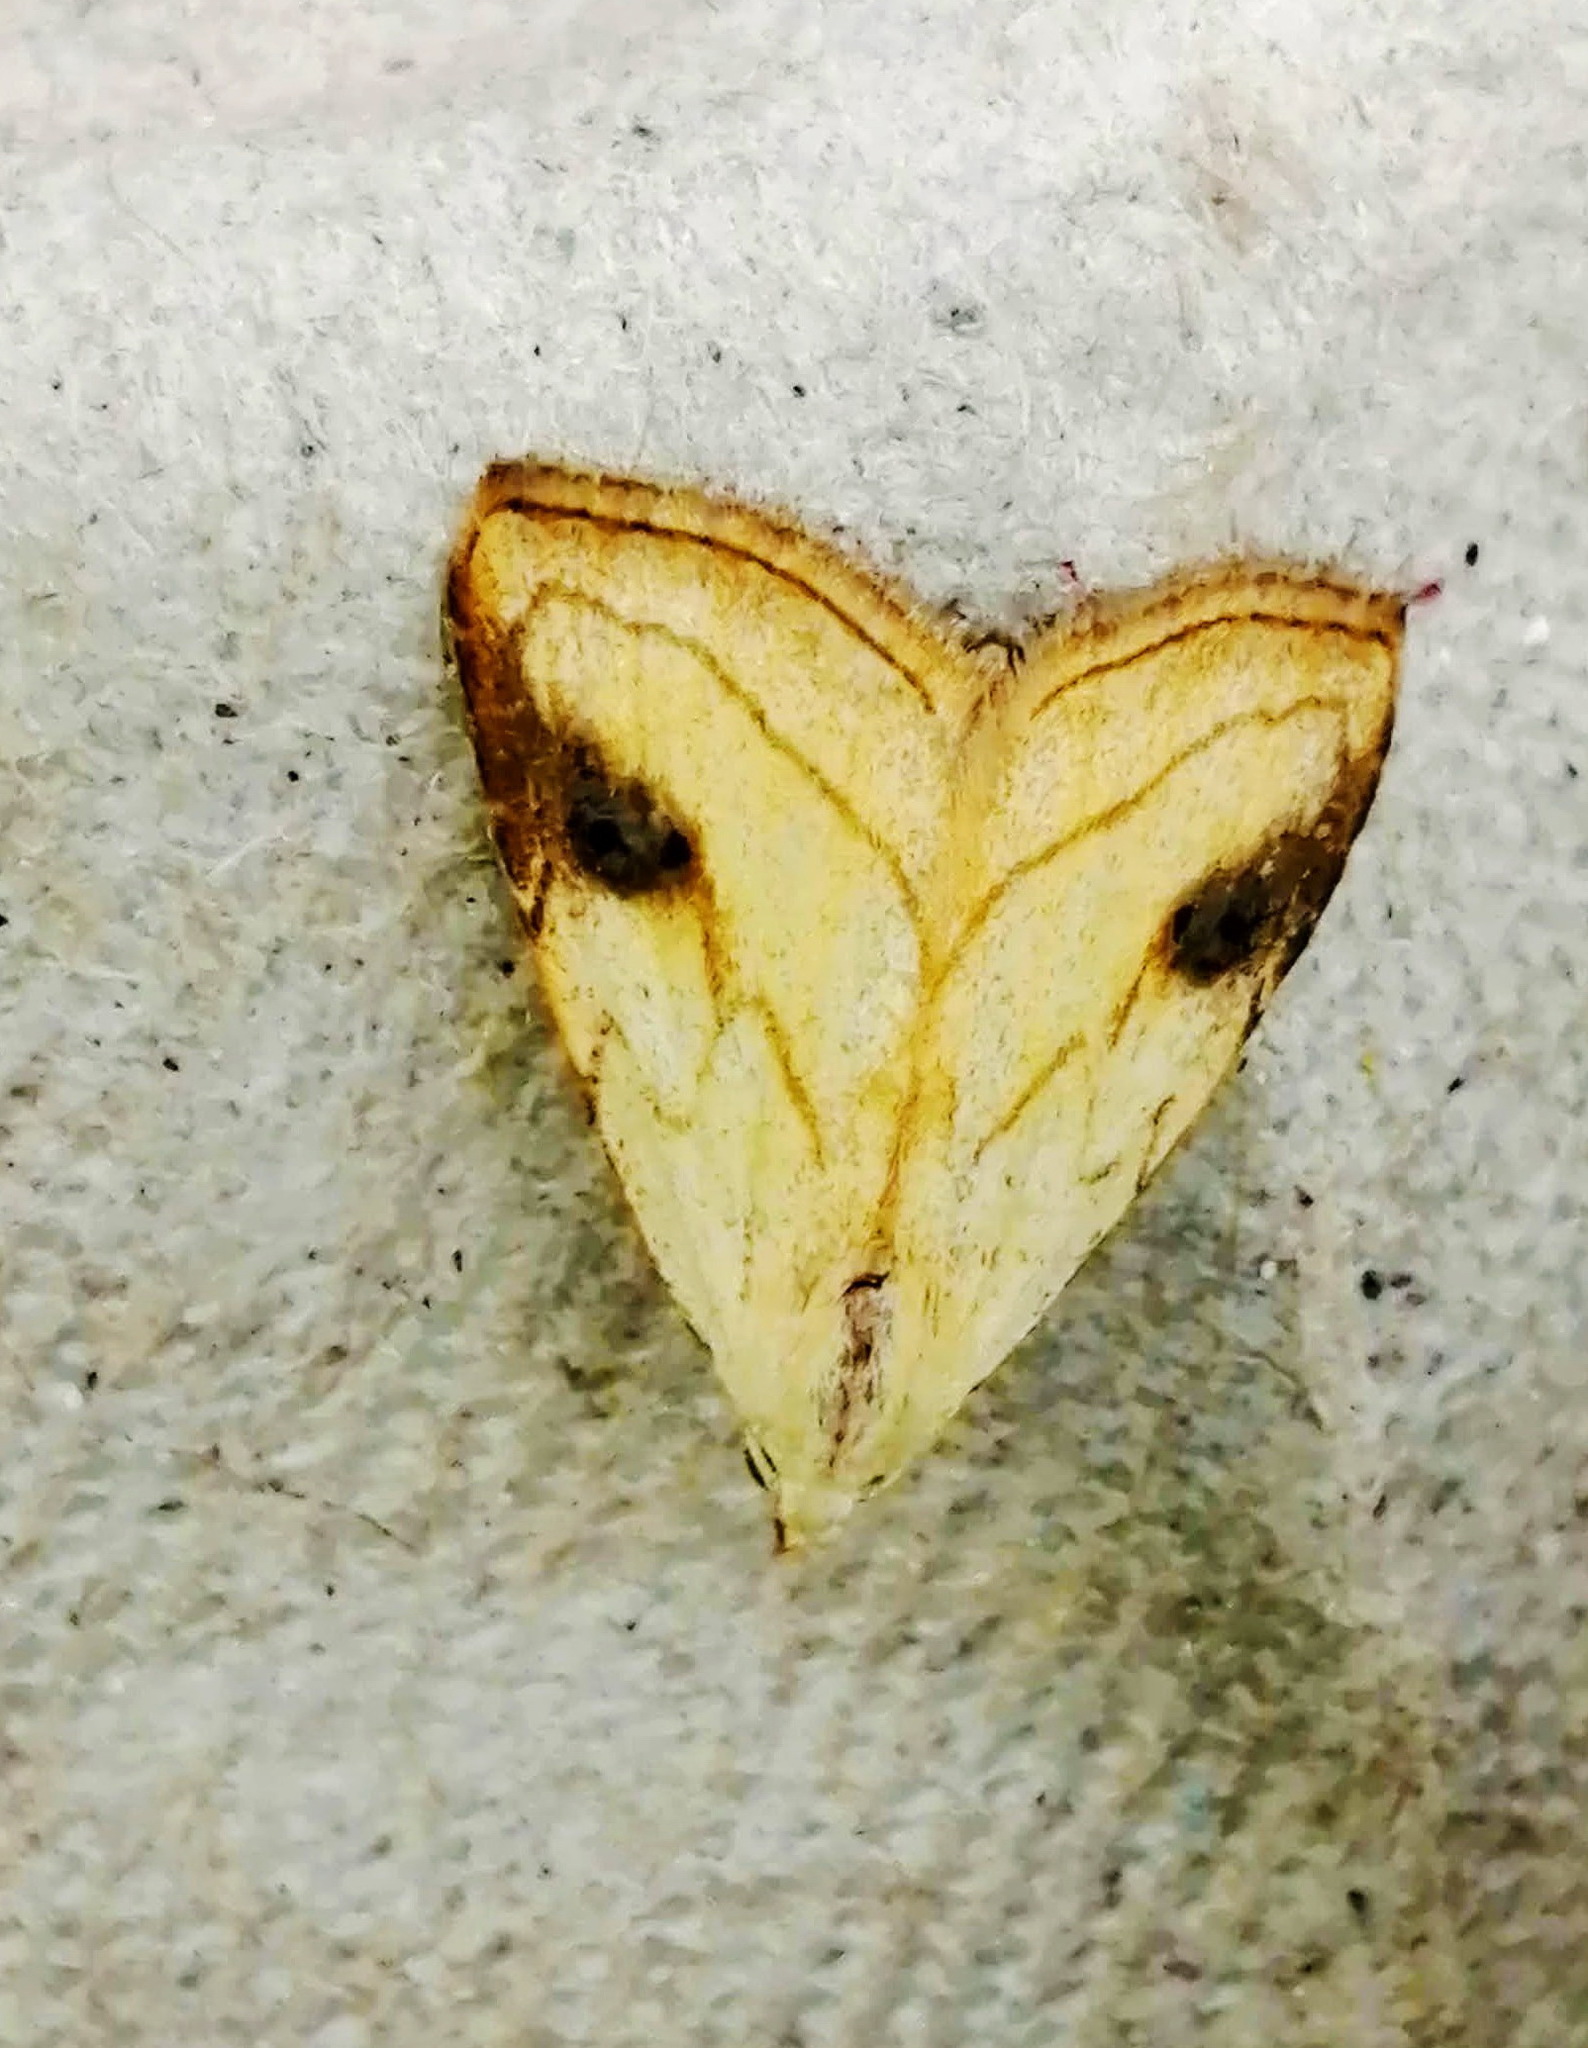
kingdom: Animalia
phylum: Arthropoda
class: Insecta
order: Lepidoptera
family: Erebidae
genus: Rivula
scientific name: Rivula propinqualis
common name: Spotted grass moth
